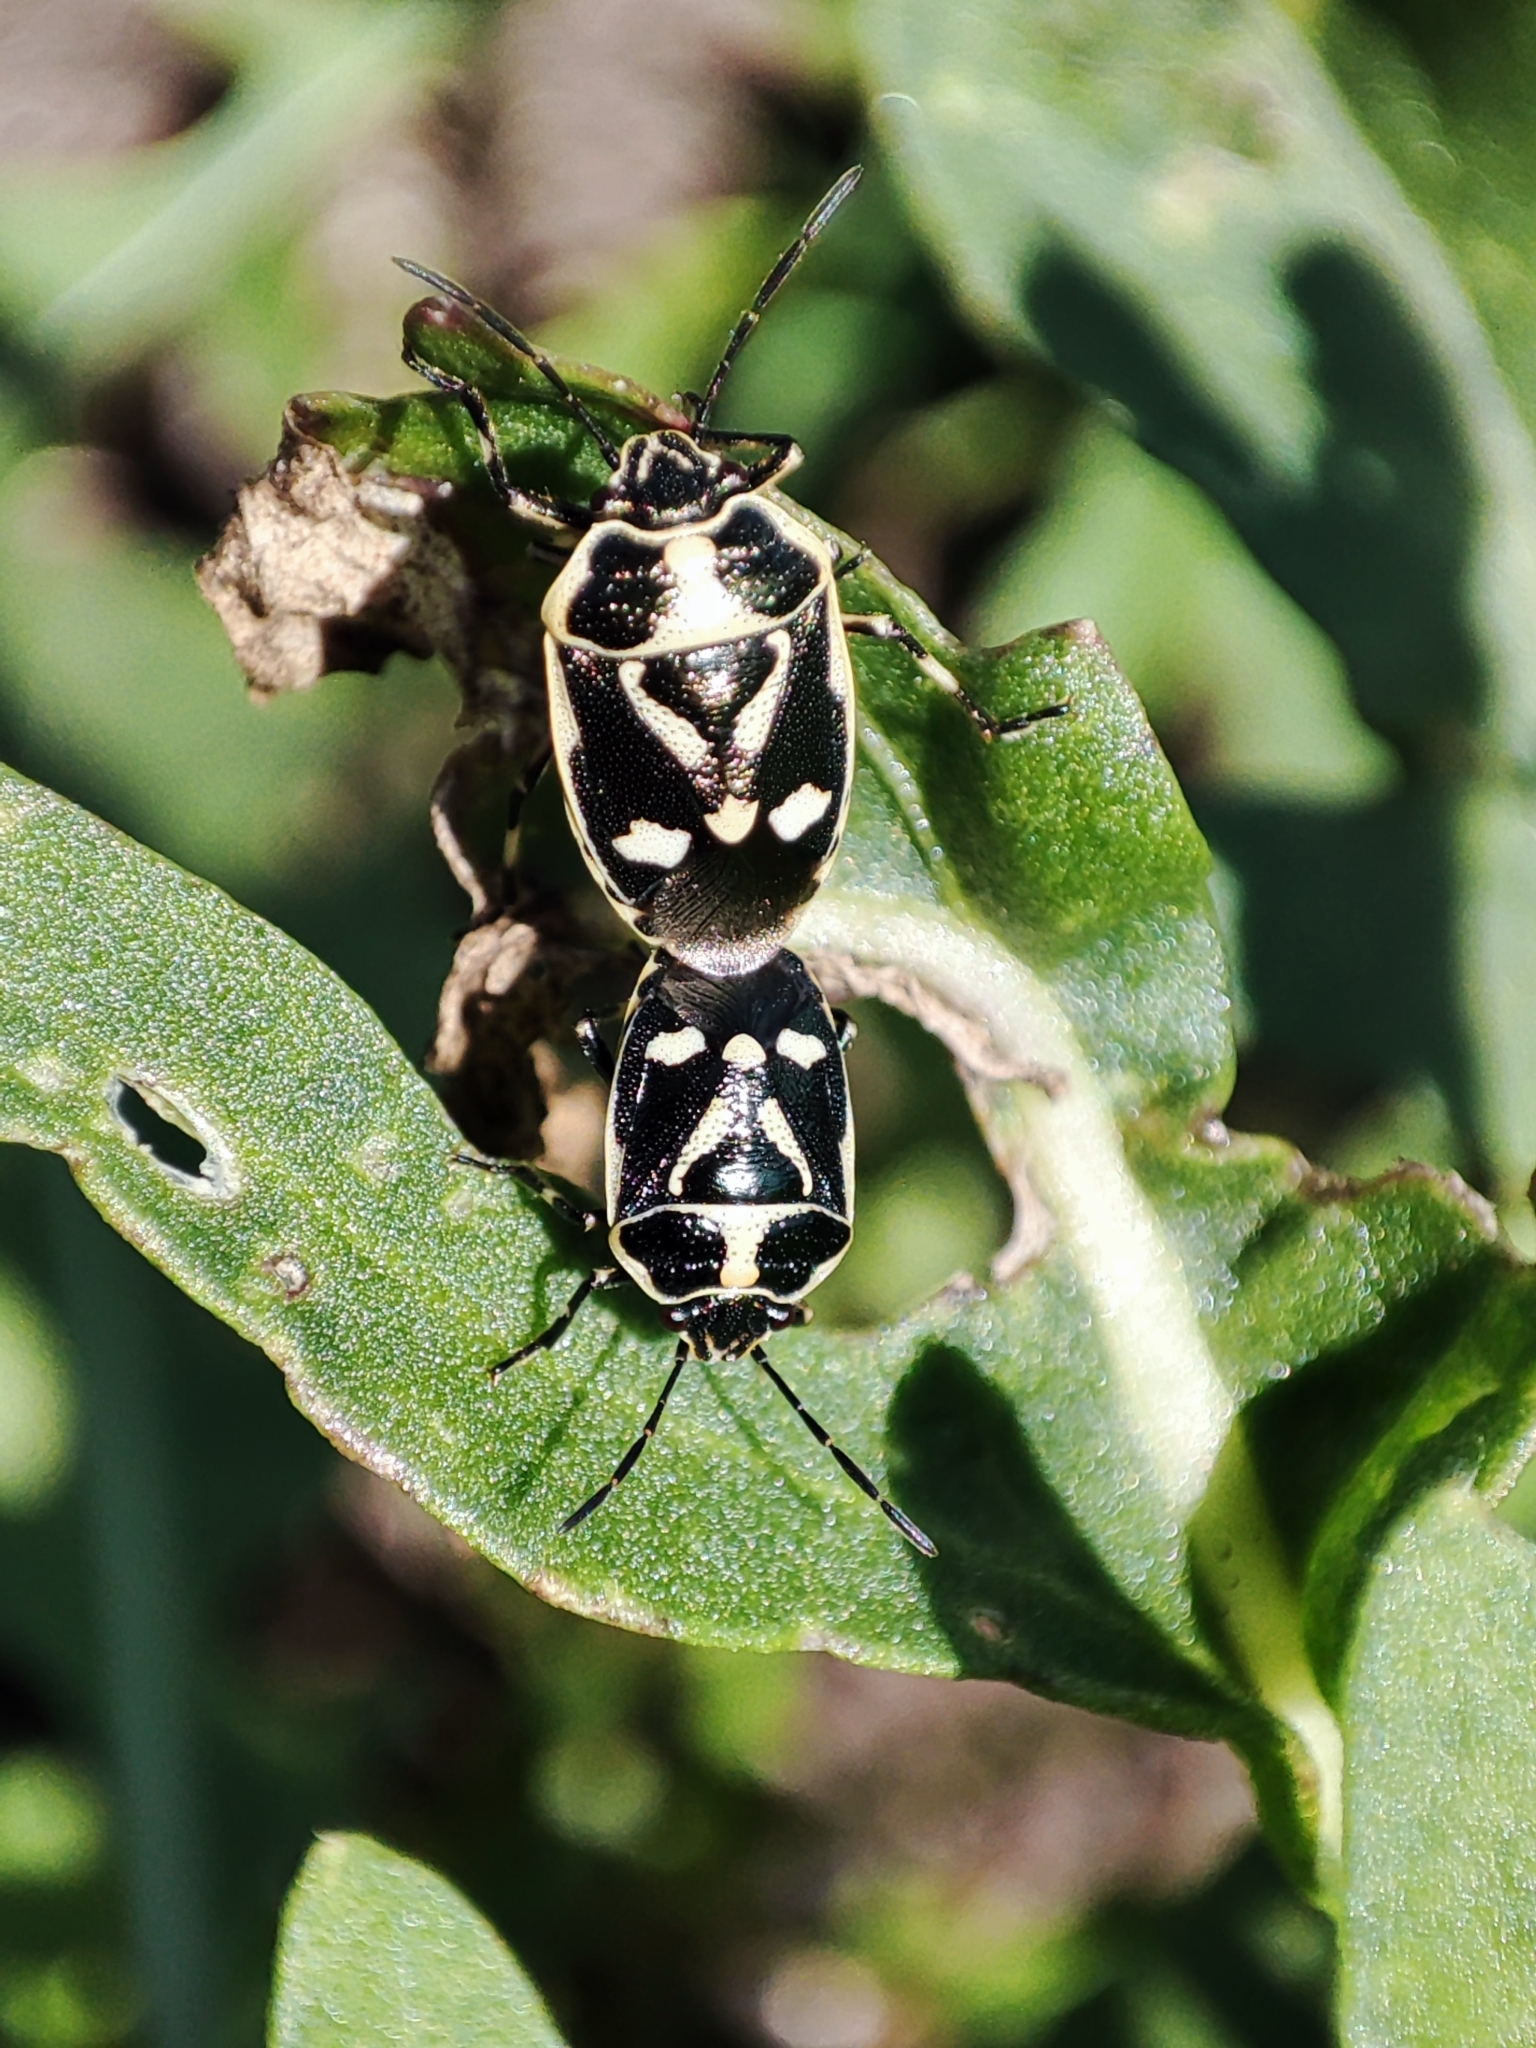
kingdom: Animalia
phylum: Arthropoda
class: Insecta
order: Hemiptera
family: Pentatomidae
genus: Eurydema
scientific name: Eurydema oleracea
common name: Cabbage bug
